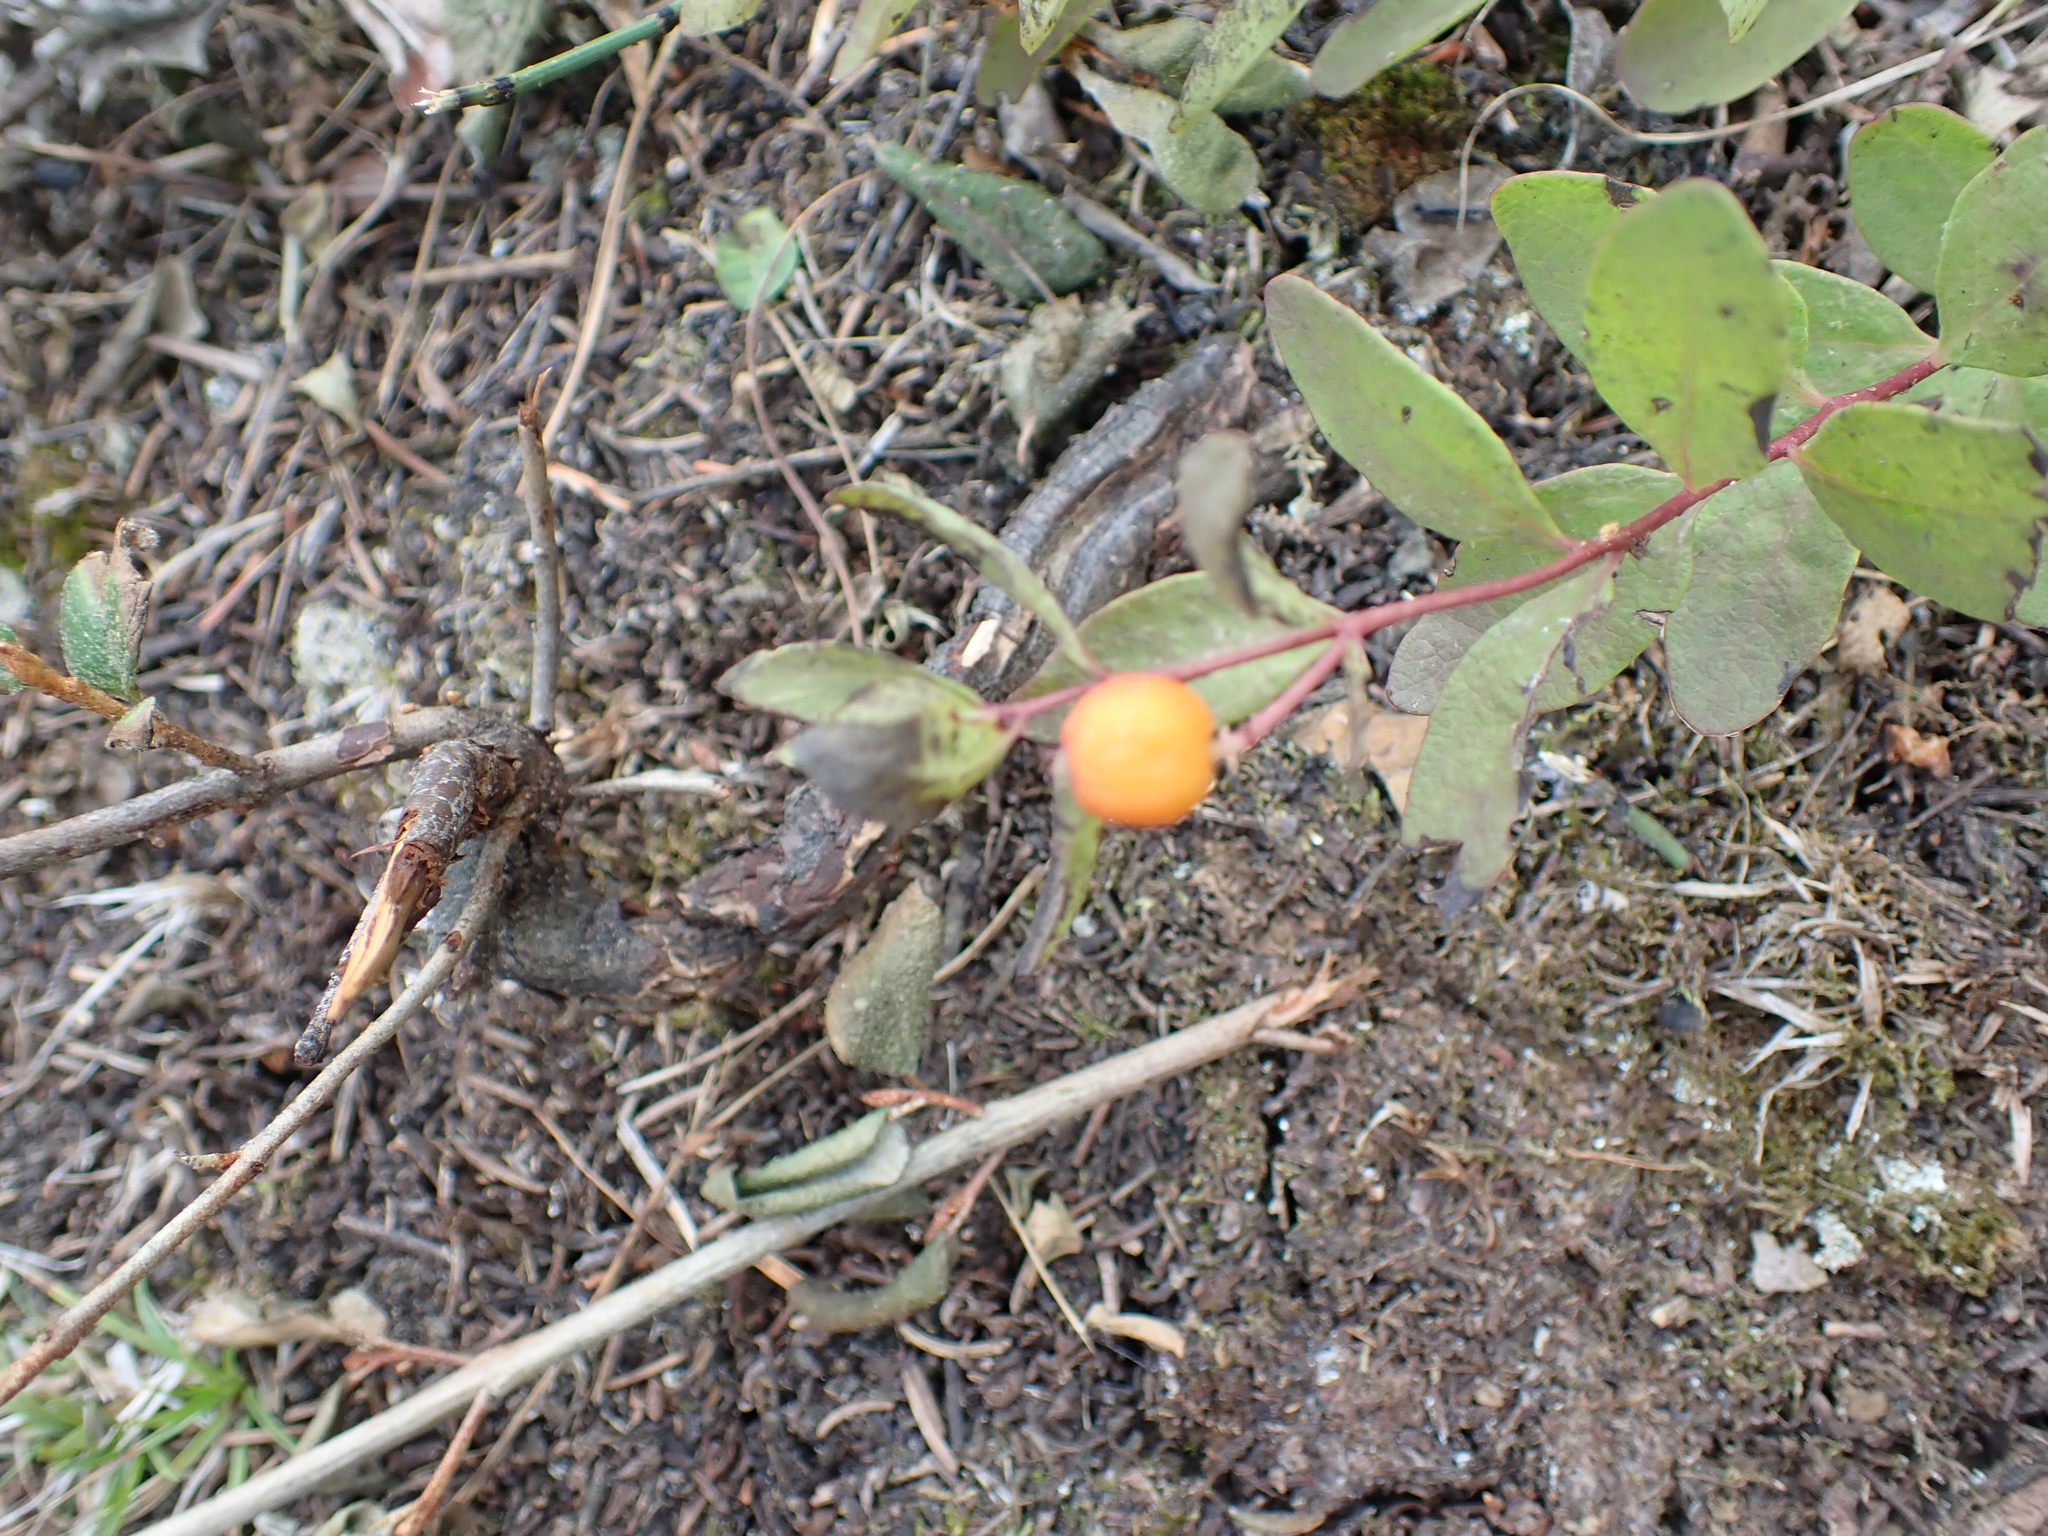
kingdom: Plantae
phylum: Tracheophyta
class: Magnoliopsida
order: Santalales
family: Comandraceae
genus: Geocaulon
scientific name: Geocaulon lividum
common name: Earthberry
